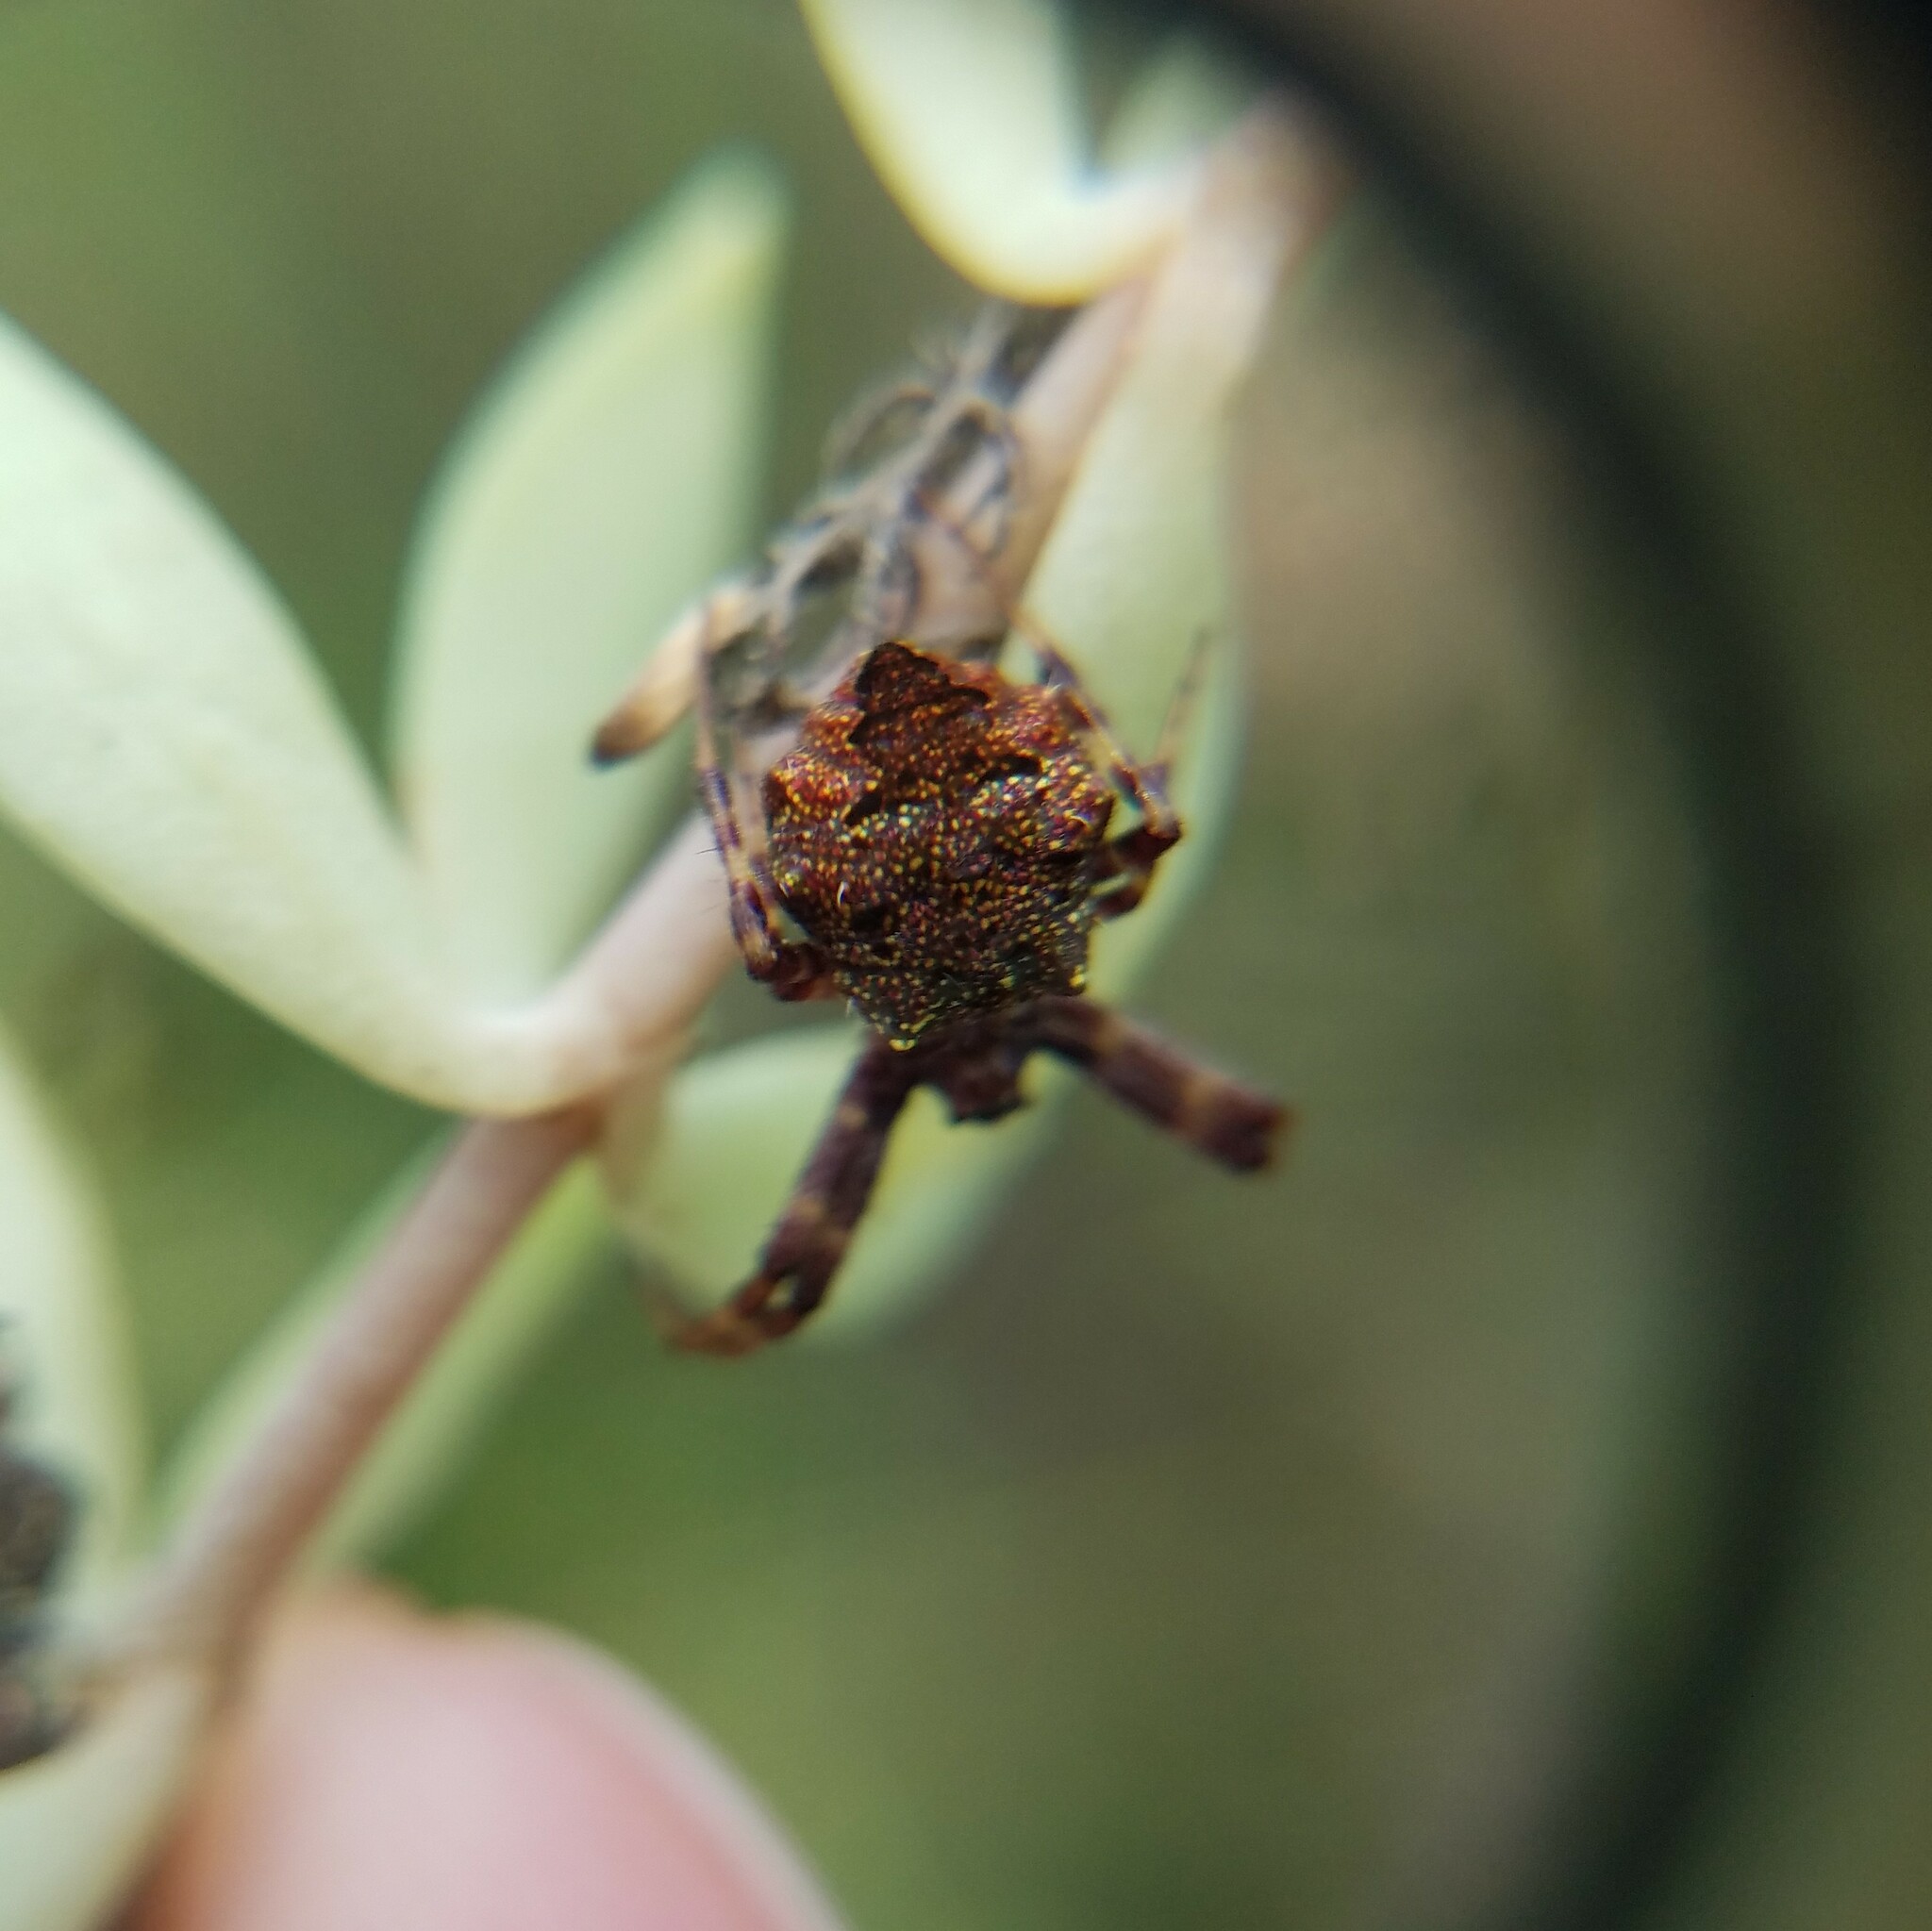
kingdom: Animalia
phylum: Arthropoda
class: Arachnida
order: Araneae
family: Araneidae
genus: Gea
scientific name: Gea heptagon
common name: Orb weavers
